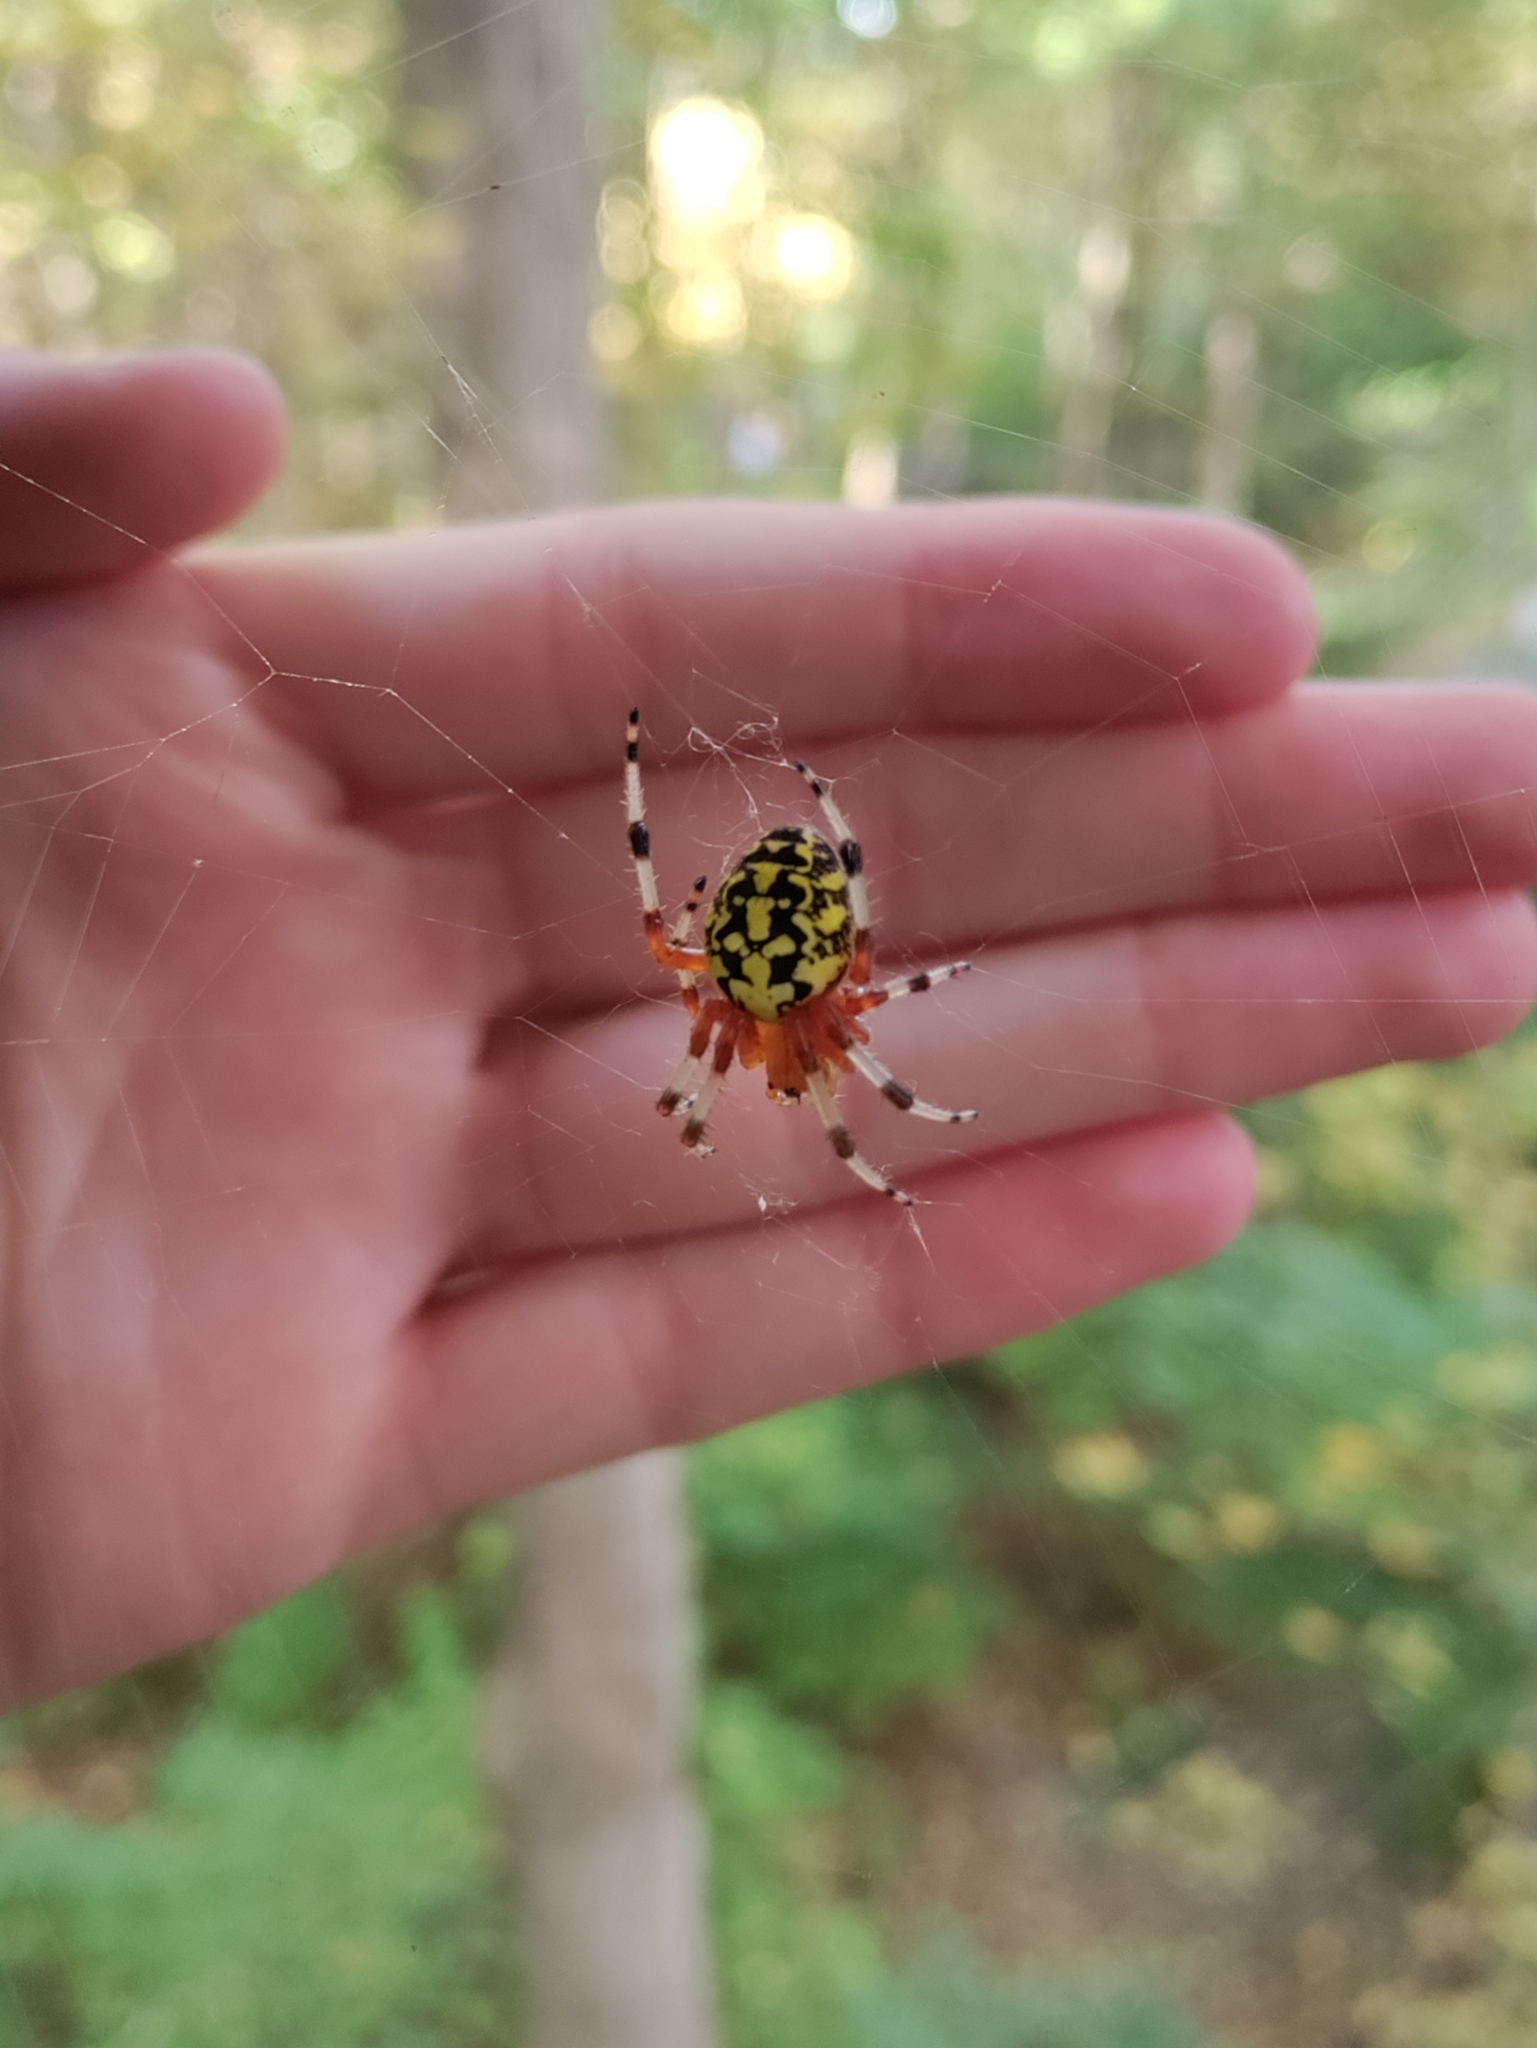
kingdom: Animalia
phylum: Arthropoda
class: Arachnida
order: Araneae
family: Araneidae
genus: Araneus
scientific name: Araneus marmoreus
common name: Marbled orbweaver
